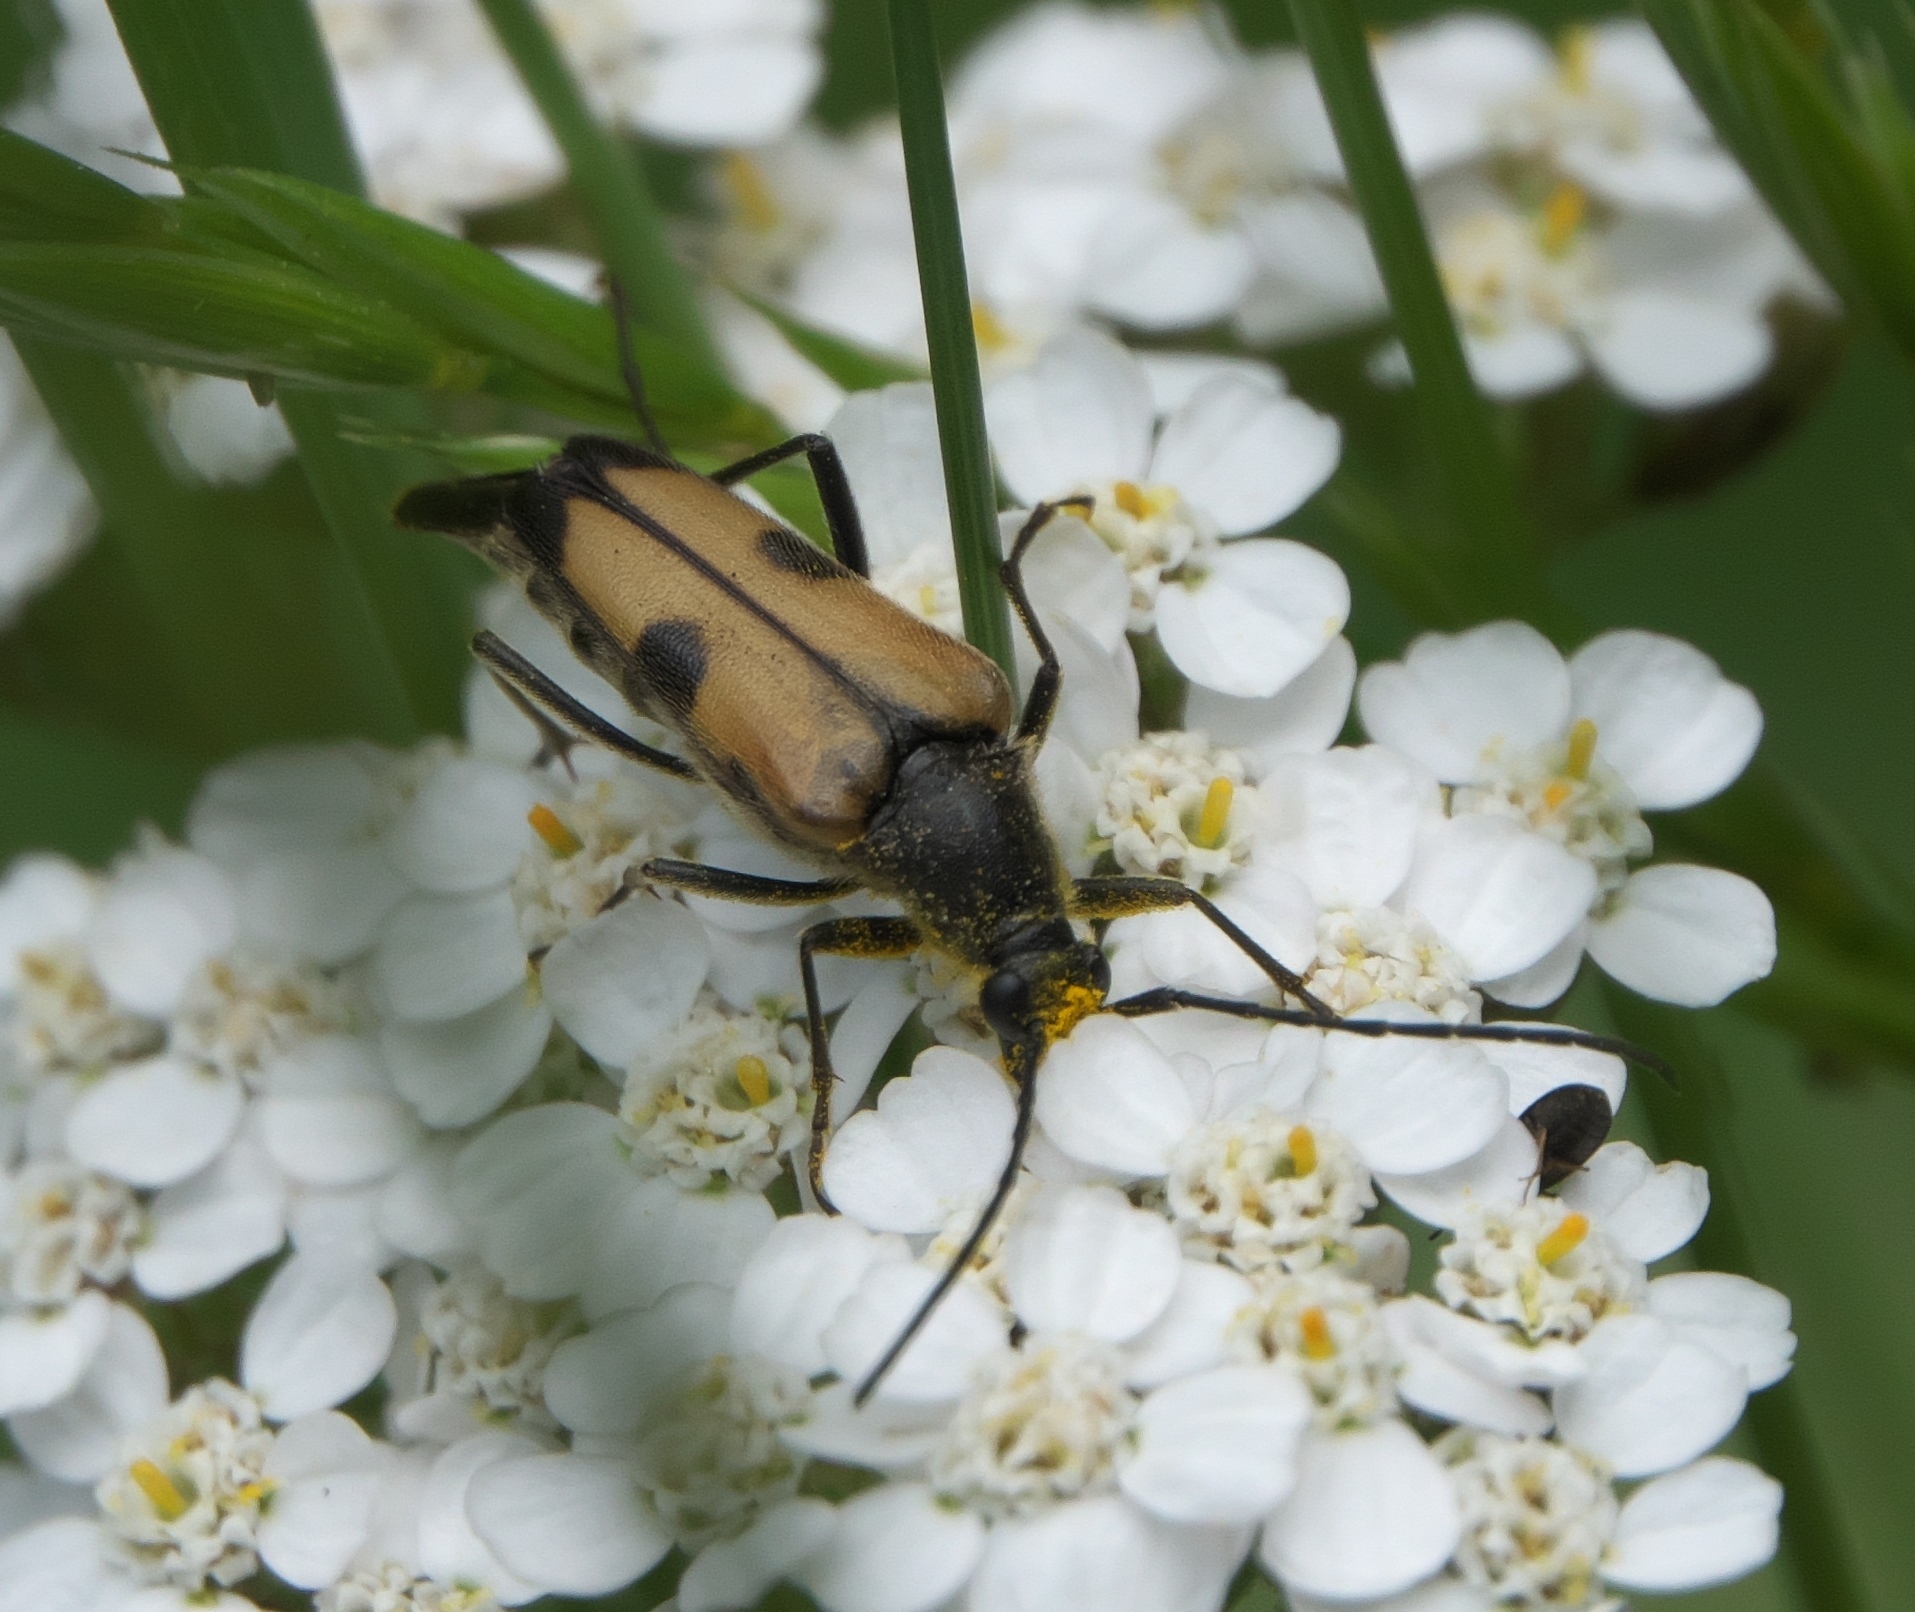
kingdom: Animalia
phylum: Arthropoda
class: Insecta
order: Coleoptera
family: Cerambycidae
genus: Etorofus
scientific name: Etorofus
